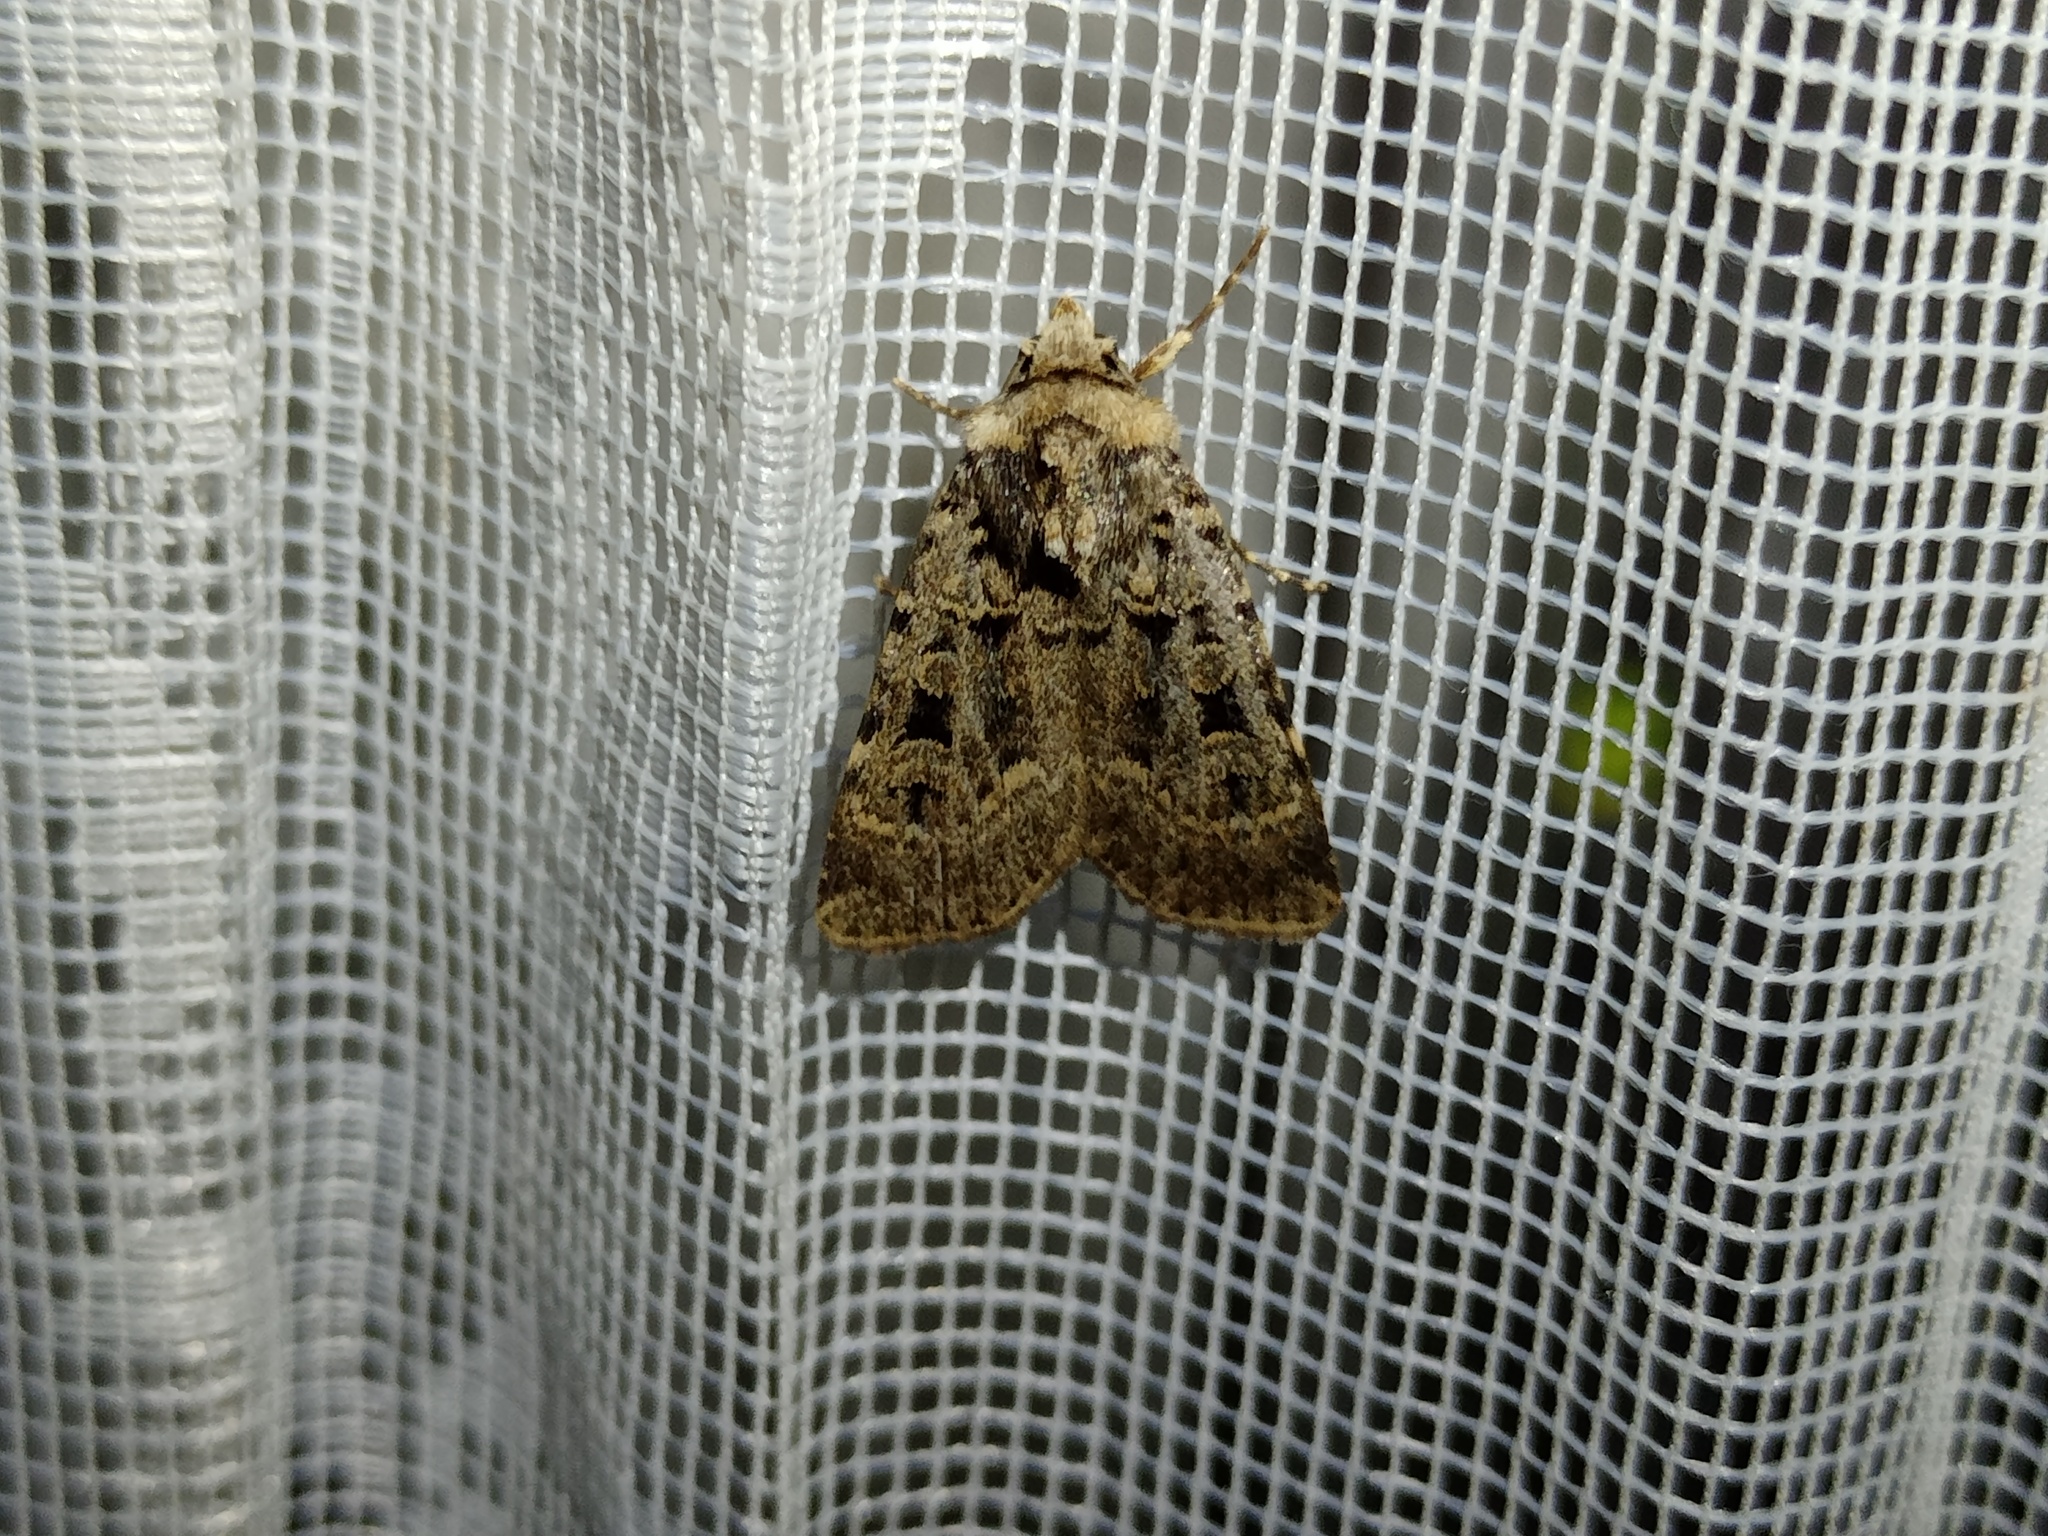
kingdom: Animalia
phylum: Arthropoda
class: Insecta
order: Lepidoptera
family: Noctuidae
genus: Chersotis
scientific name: Chersotis multangula
